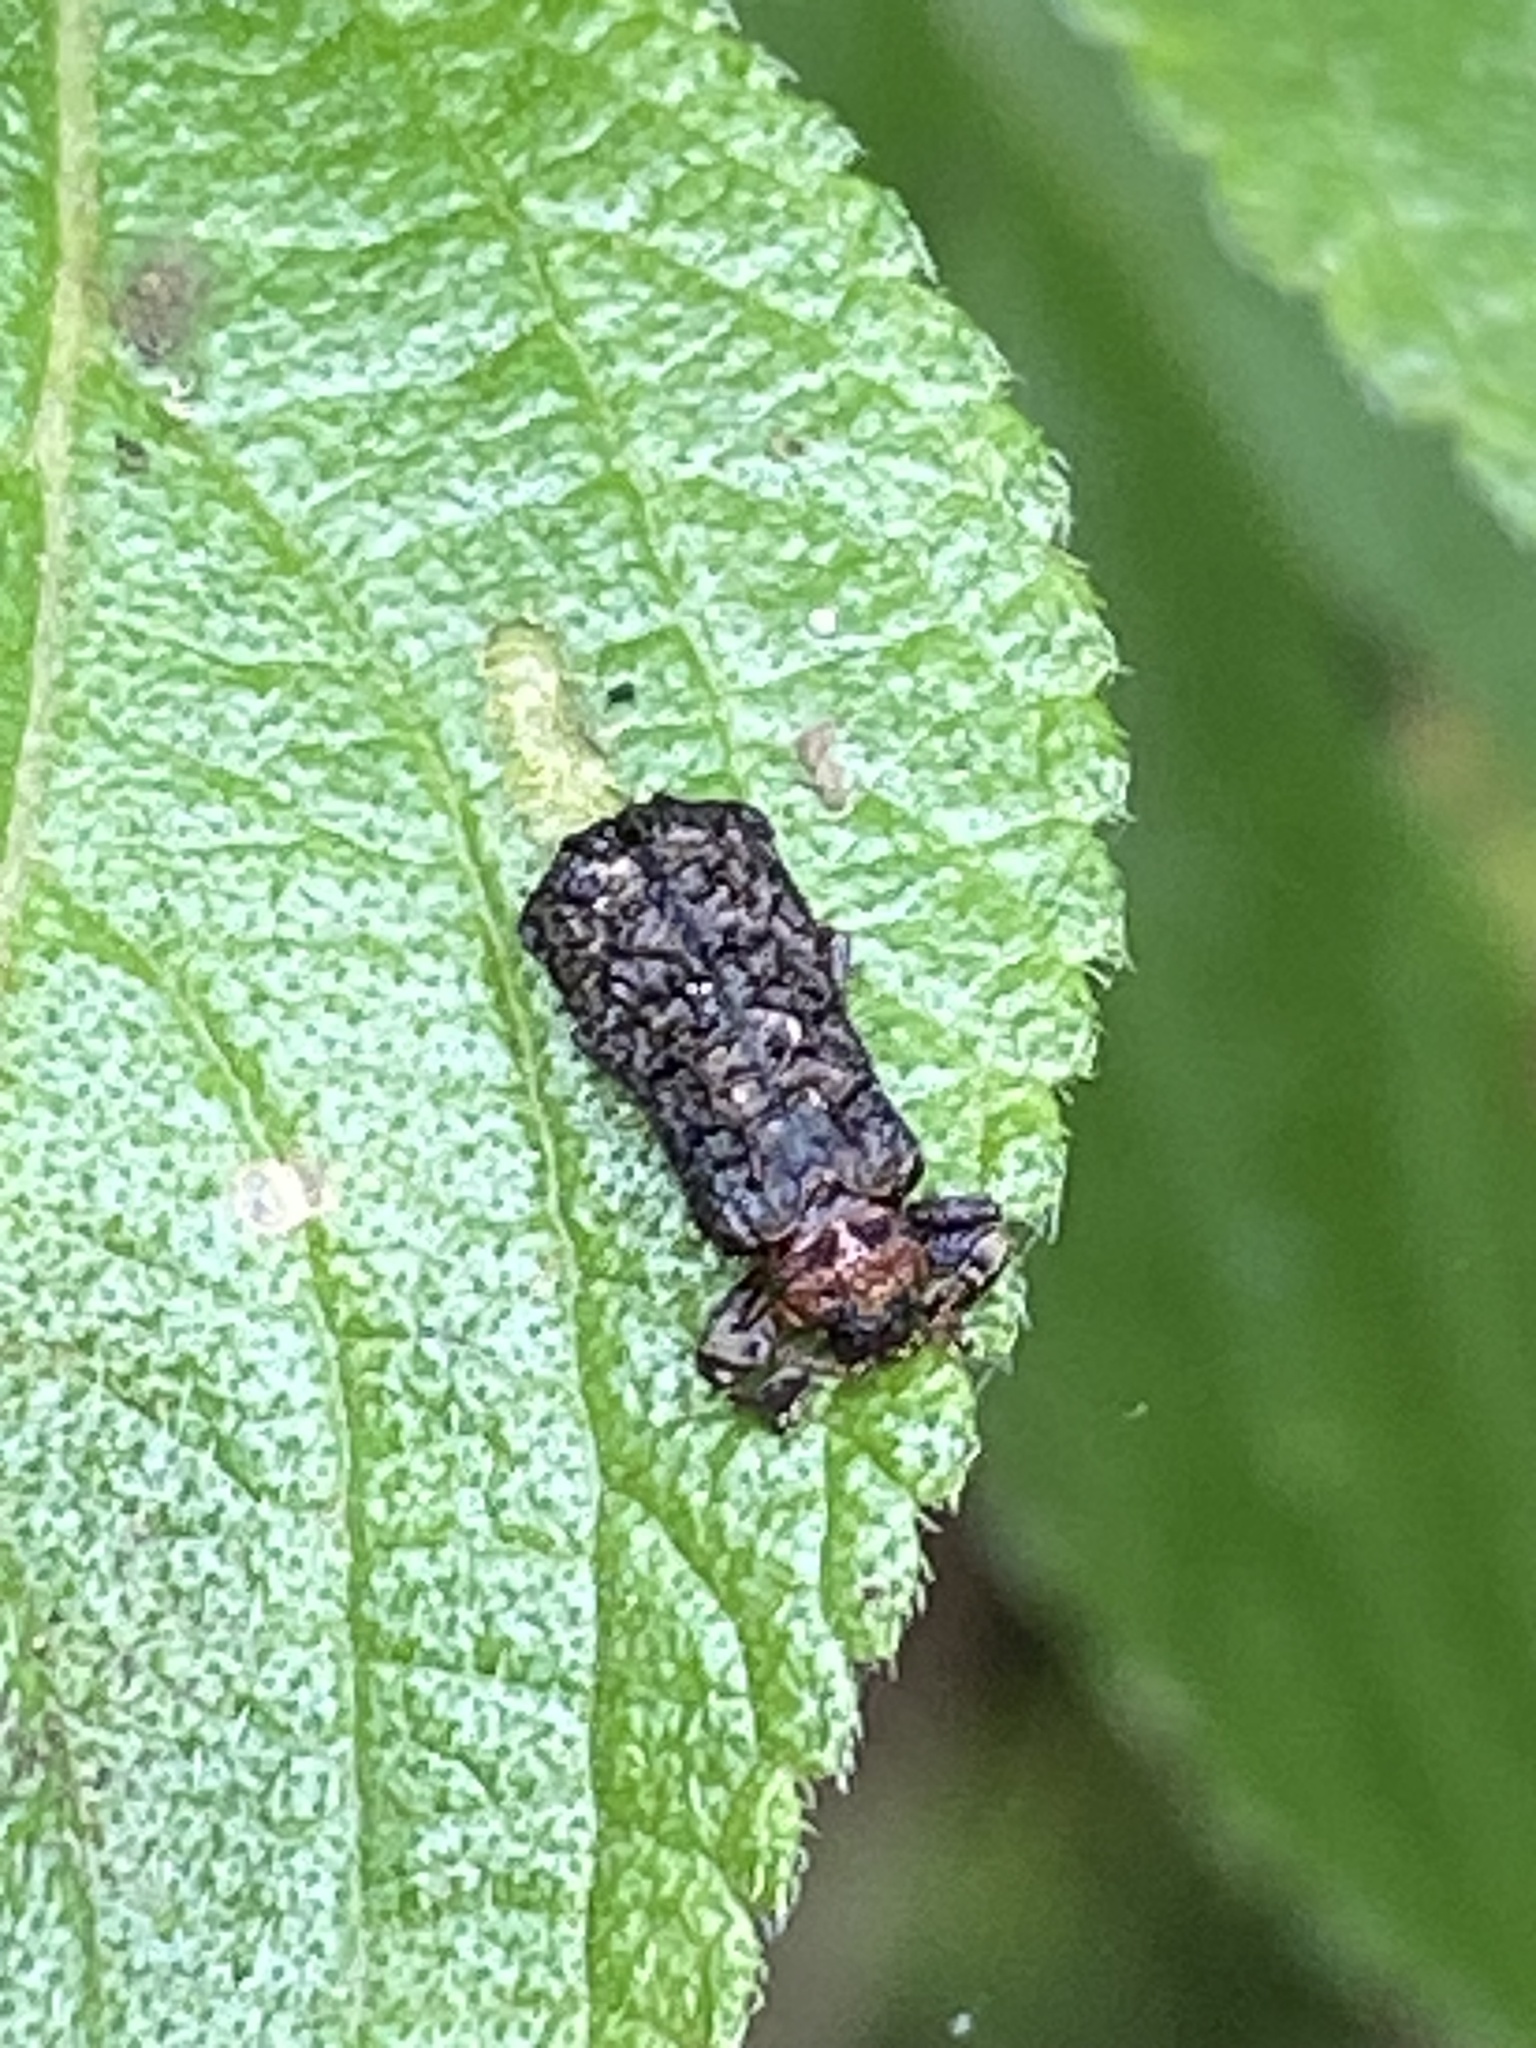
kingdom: Animalia
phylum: Arthropoda
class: Insecta
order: Coleoptera
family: Chrysomelidae
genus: Octotoma
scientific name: Octotoma scabripennis
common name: Beetle
